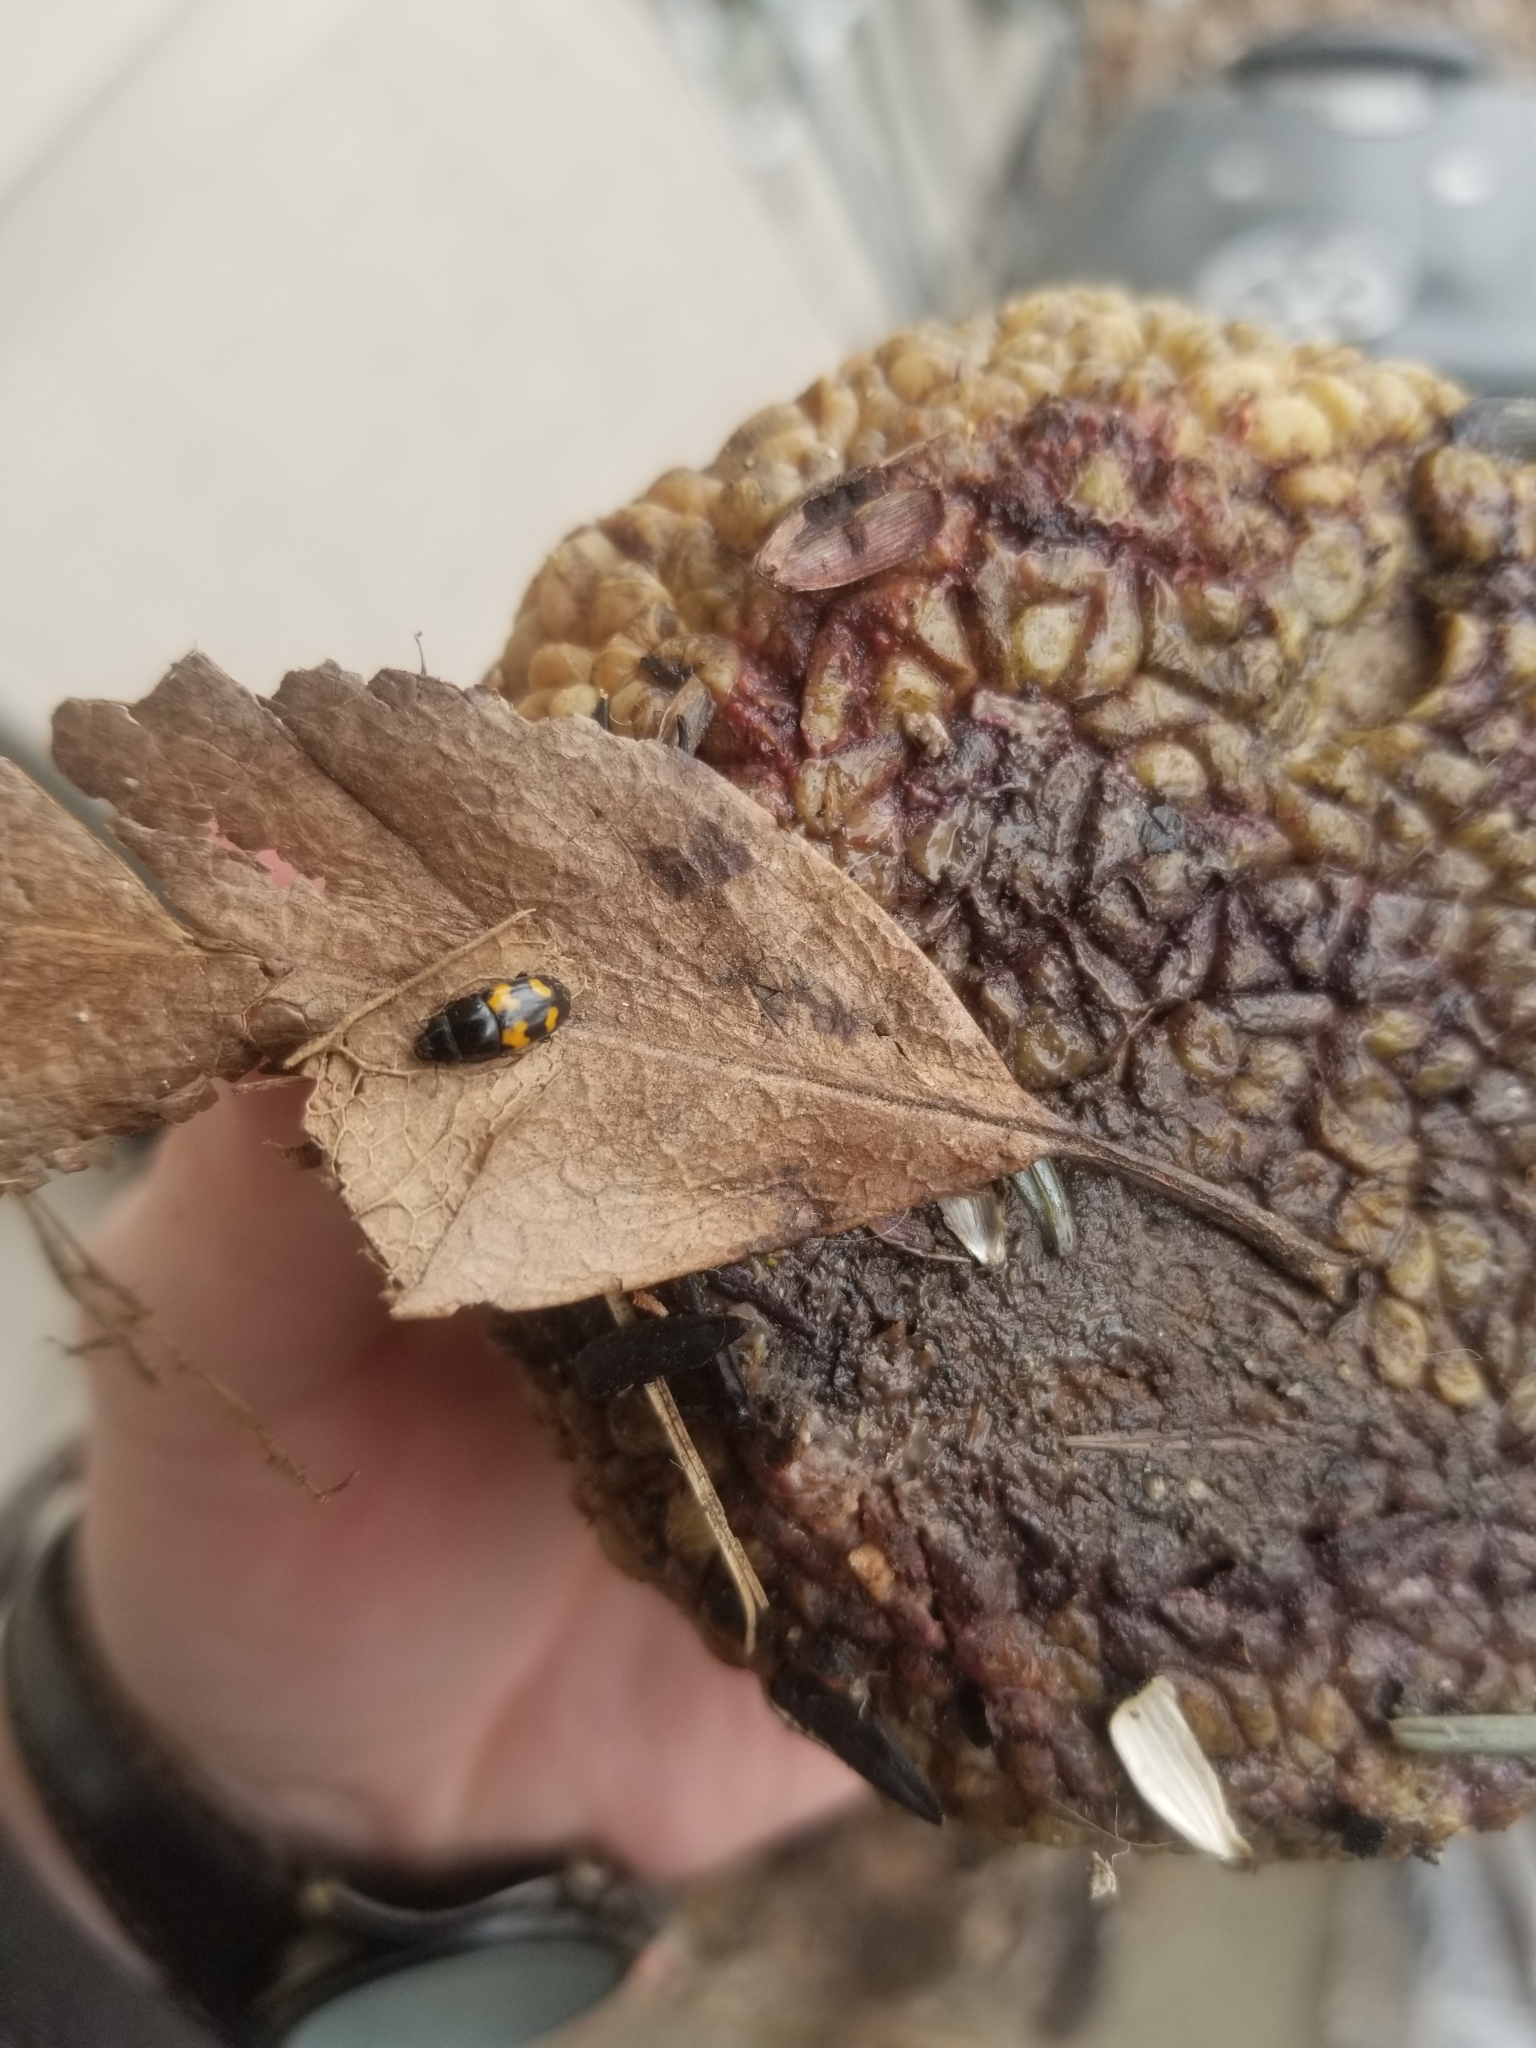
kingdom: Animalia
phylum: Arthropoda
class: Insecta
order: Coleoptera
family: Nitidulidae
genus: Glischrochilus
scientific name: Glischrochilus fasciatus
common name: Picnic beetle
